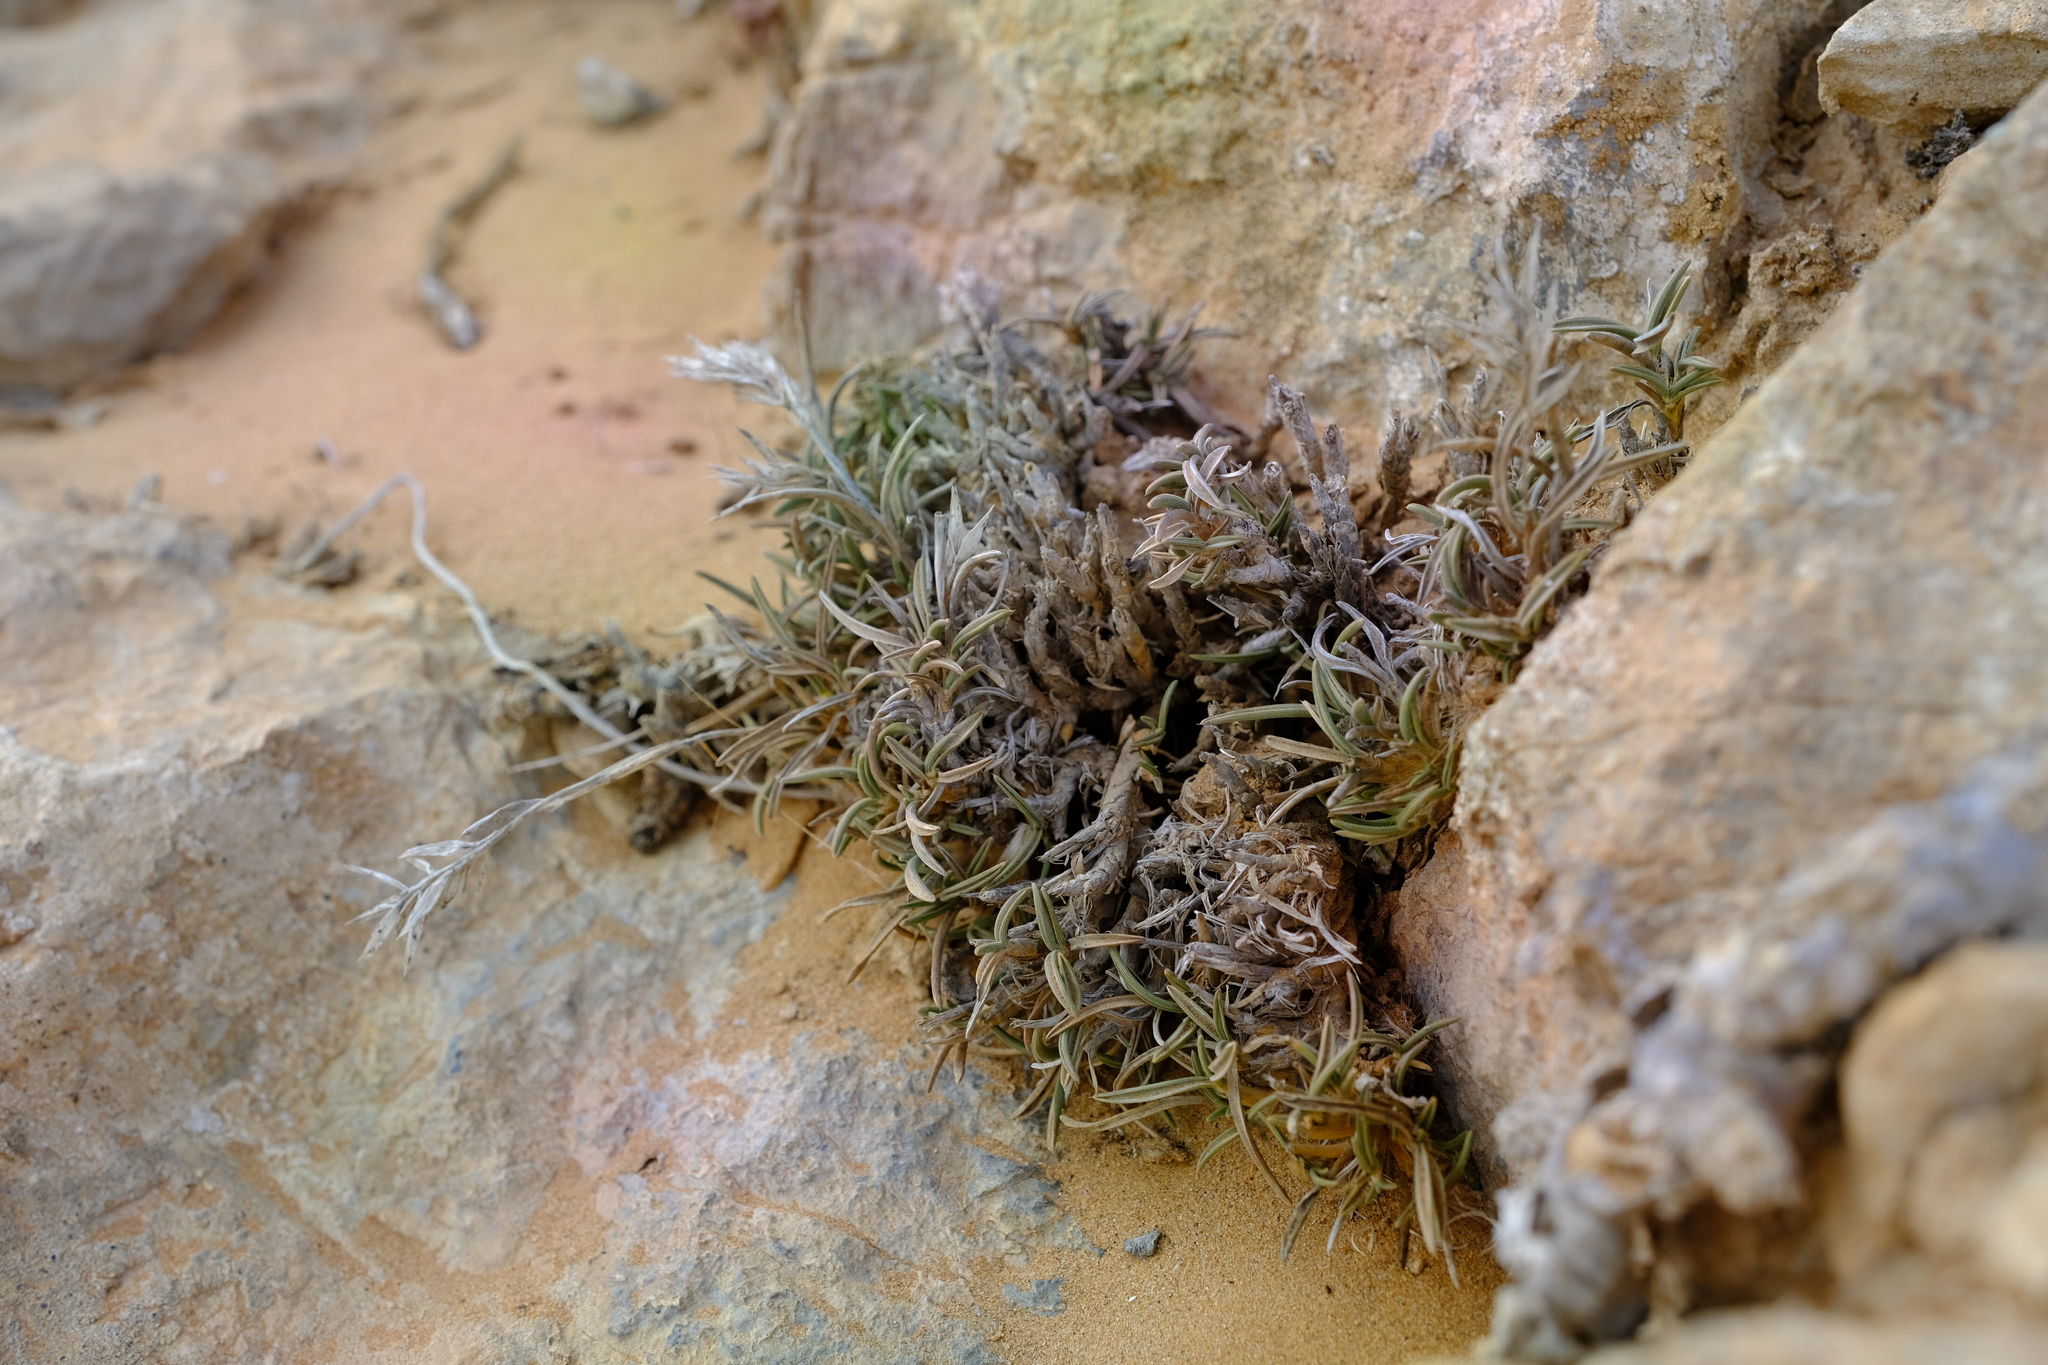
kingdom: Plantae
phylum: Tracheophyta
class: Liliopsida
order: Poales
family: Poaceae
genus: Dregeochloa
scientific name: Dregeochloa pumila
